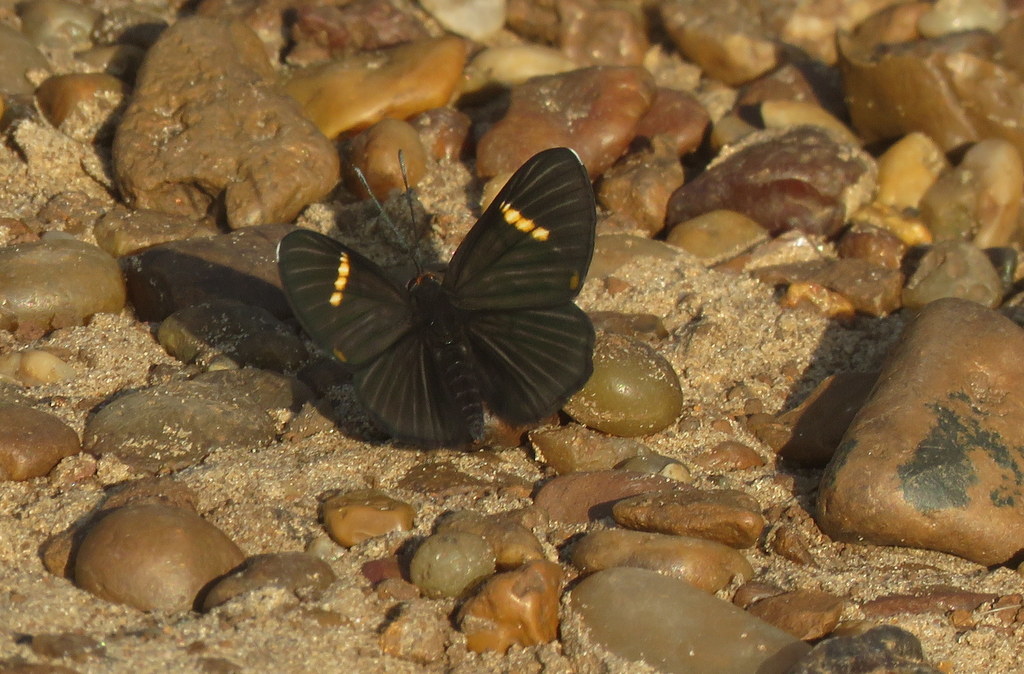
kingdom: Animalia
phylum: Arthropoda
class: Insecta
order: Lepidoptera
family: Riodinidae
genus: Riodina
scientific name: Riodina lycisca
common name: Lycisca metalmark
